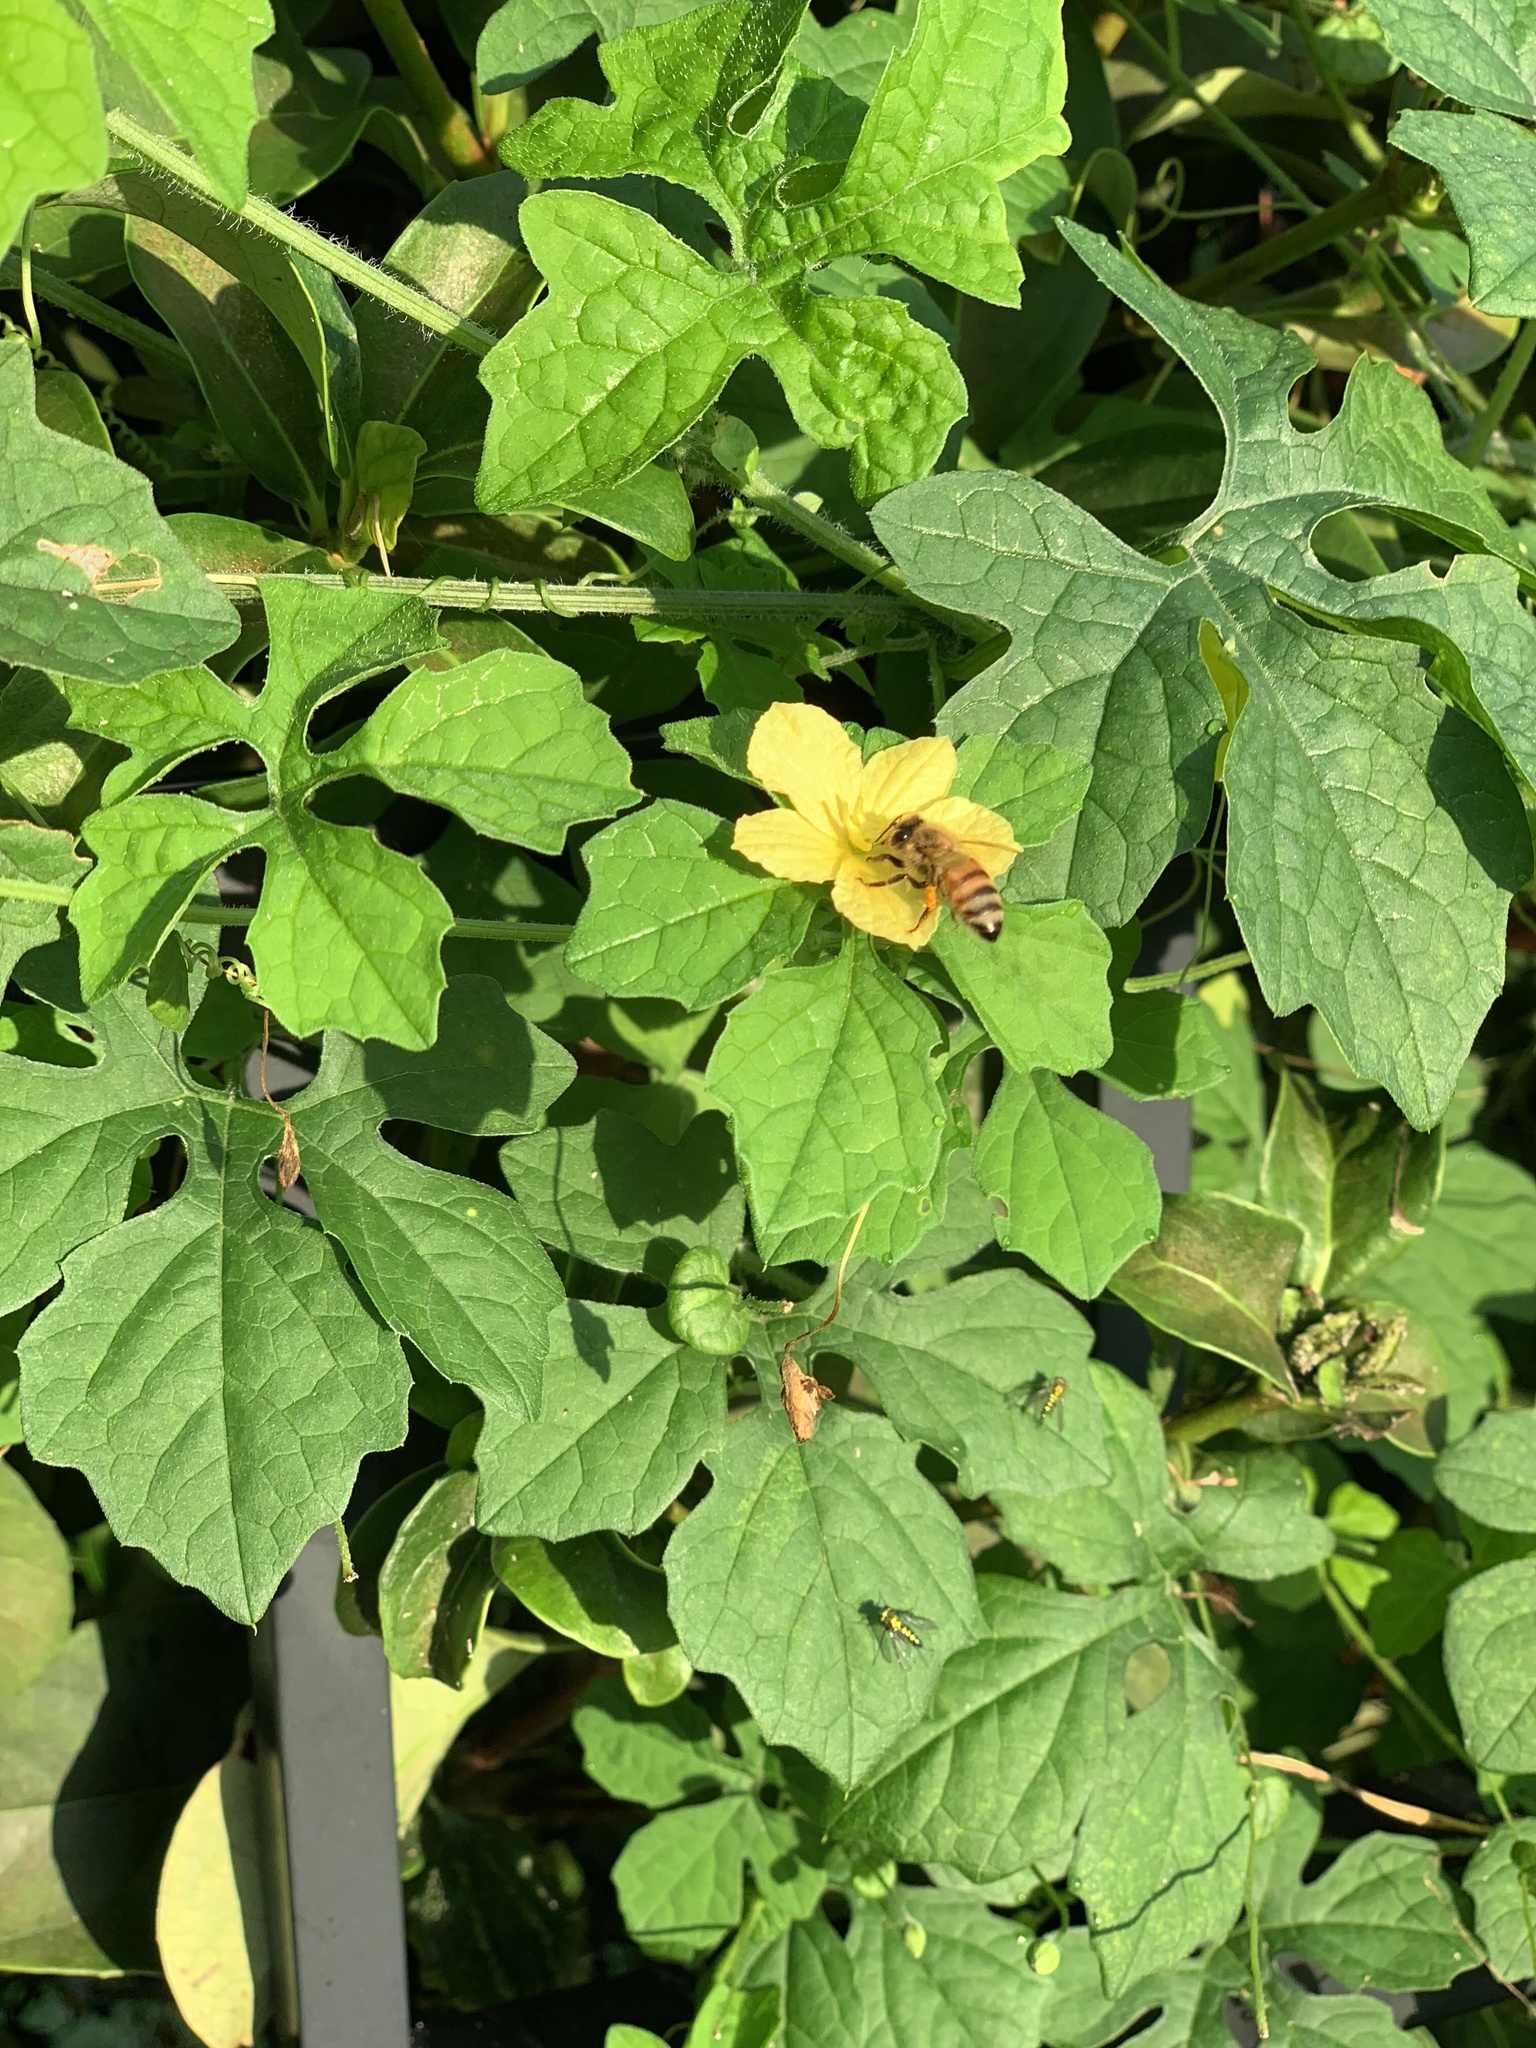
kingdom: Animalia
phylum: Arthropoda
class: Insecta
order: Hymenoptera
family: Apidae
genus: Apis
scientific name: Apis mellifera
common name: Honey bee
